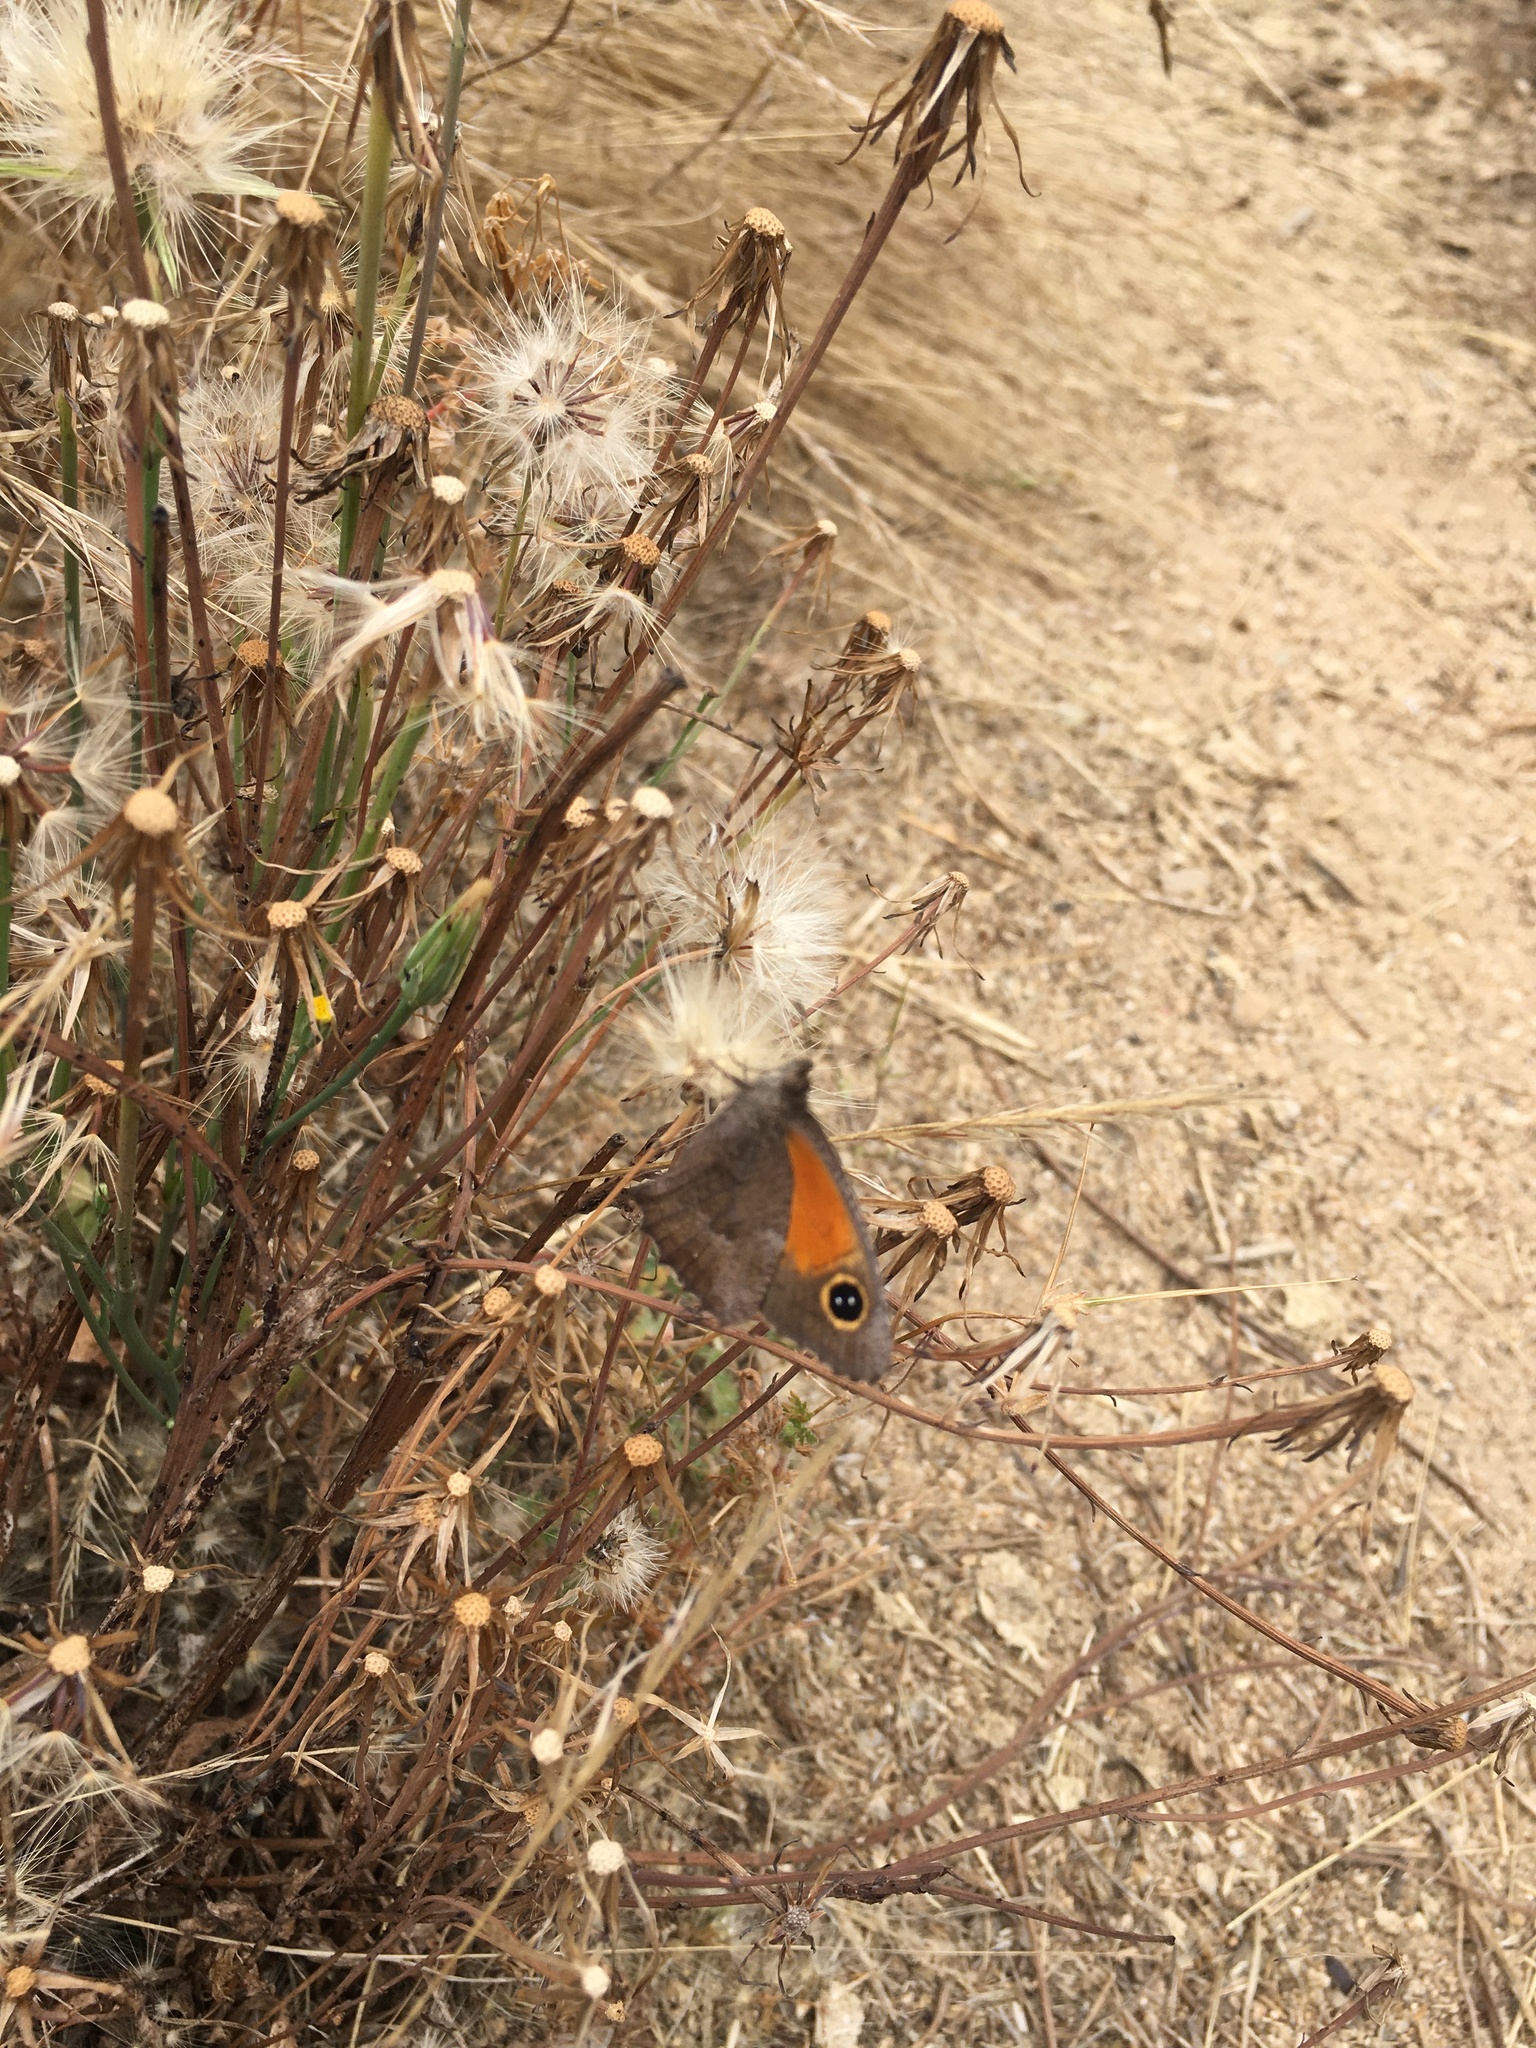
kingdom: Animalia
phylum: Arthropoda
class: Insecta
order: Lepidoptera
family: Nymphalidae
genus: Auca
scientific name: Auca barrosi
